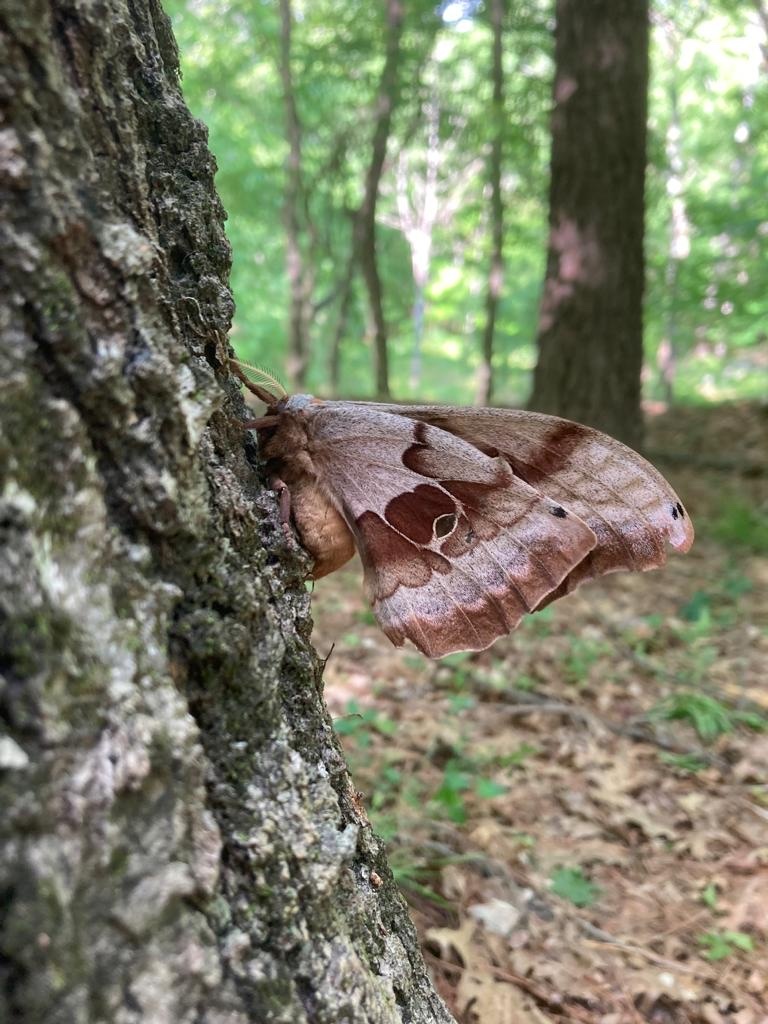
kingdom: Animalia
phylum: Arthropoda
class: Insecta
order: Lepidoptera
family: Saturniidae
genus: Antheraea
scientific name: Antheraea polyphemus
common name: Polyphemus moth
